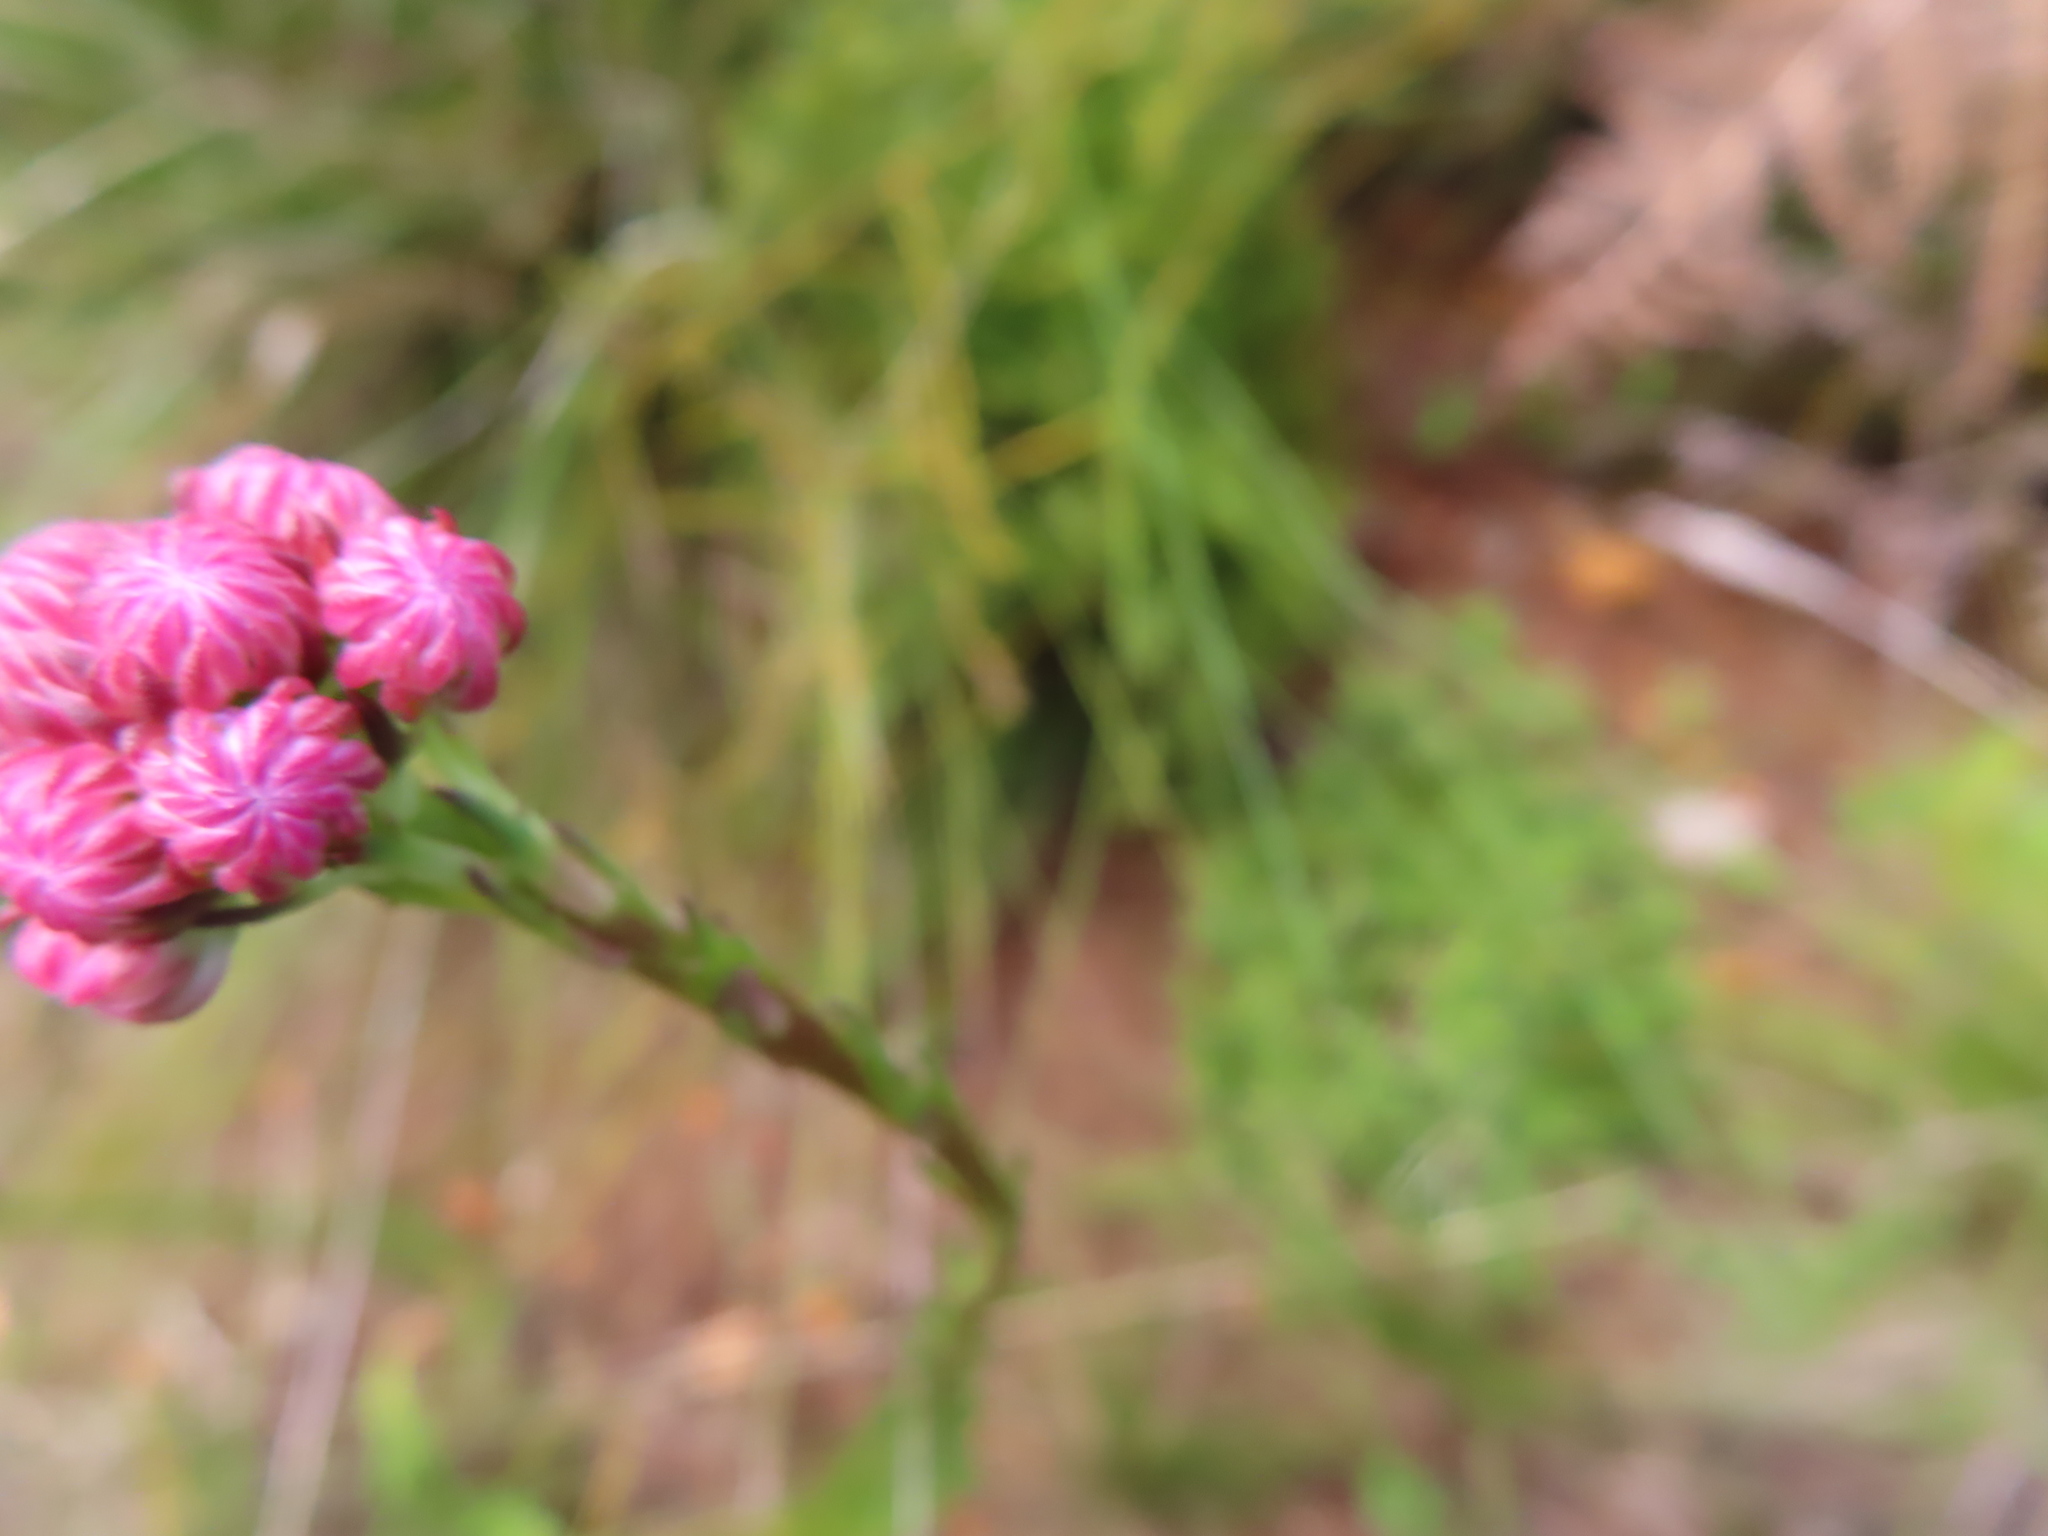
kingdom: Plantae
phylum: Tracheophyta
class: Magnoliopsida
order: Lamiales
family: Scrophulariaceae
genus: Pseudoselago
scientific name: Pseudoselago spuria
